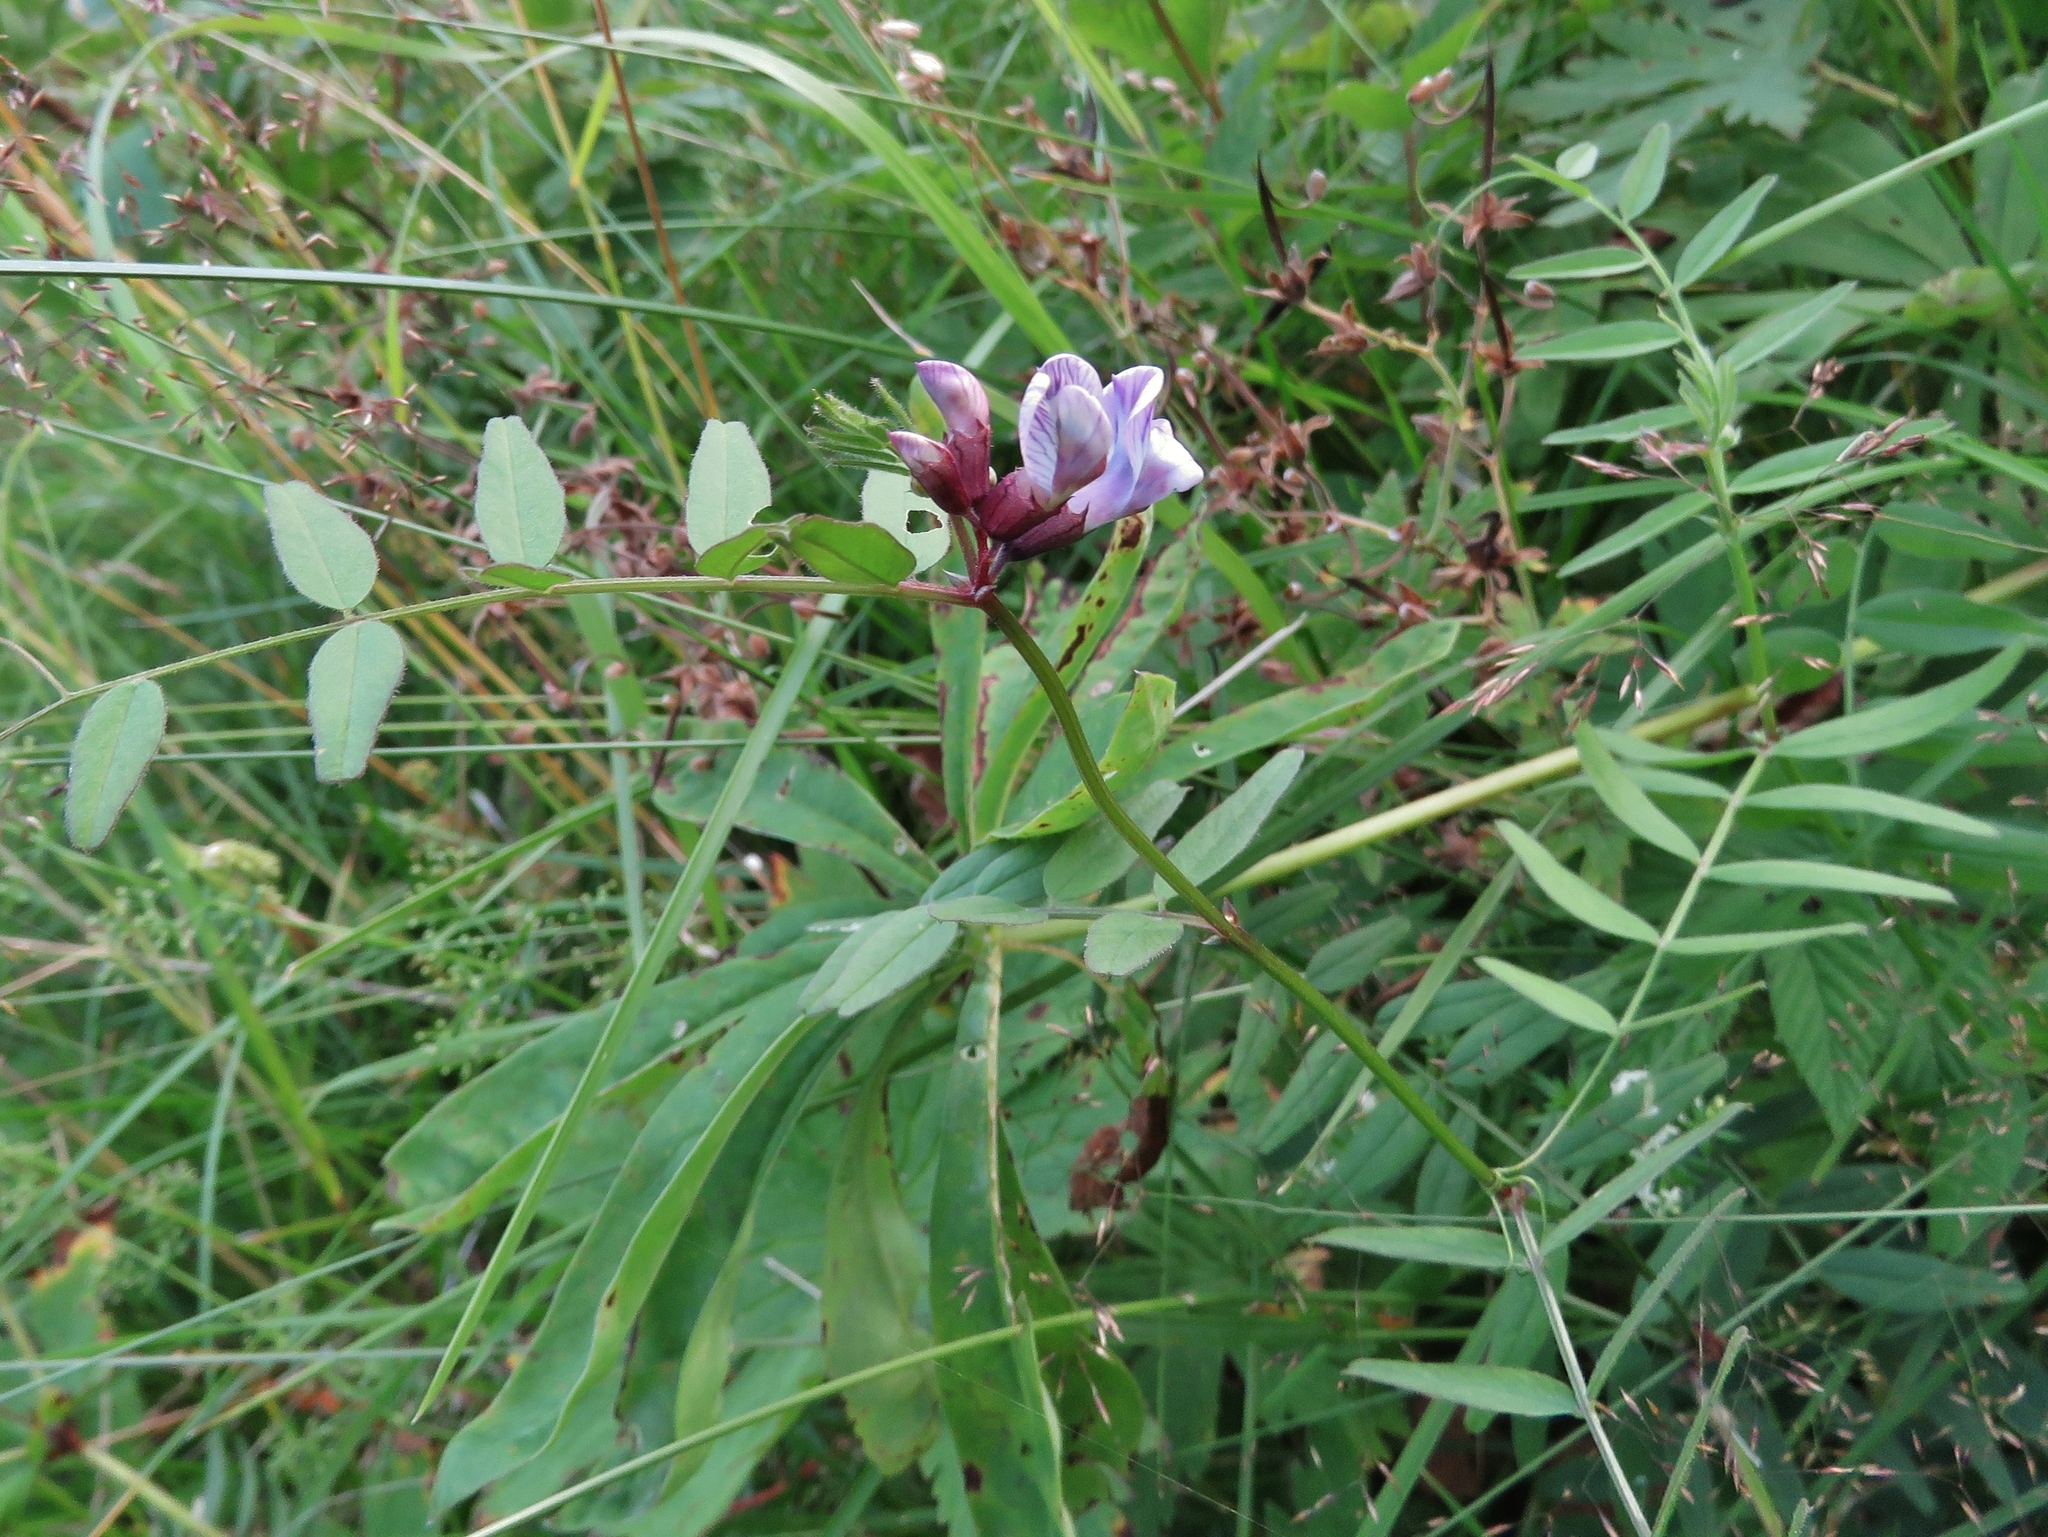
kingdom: Plantae
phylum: Tracheophyta
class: Magnoliopsida
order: Fabales
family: Fabaceae
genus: Vicia
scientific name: Vicia sepium
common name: Bush vetch
